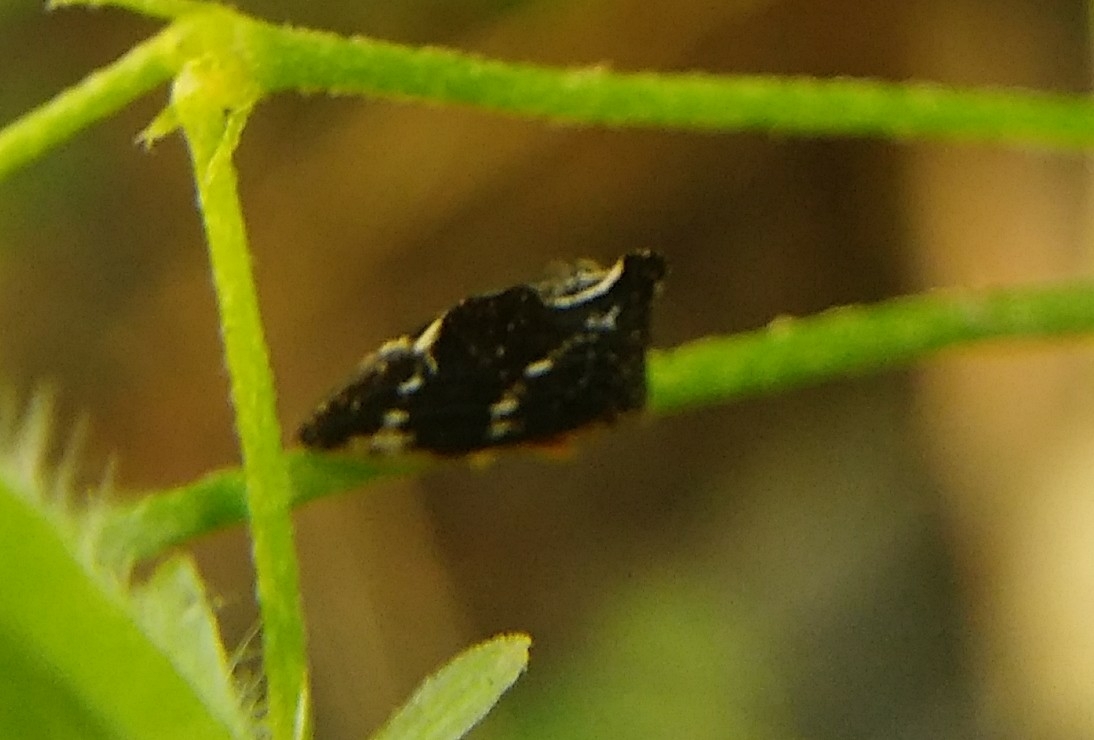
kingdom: Animalia
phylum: Arthropoda
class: Insecta
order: Hemiptera
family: Membracidae
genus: Entylia
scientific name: Entylia carinata
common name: Keeled treehopper
